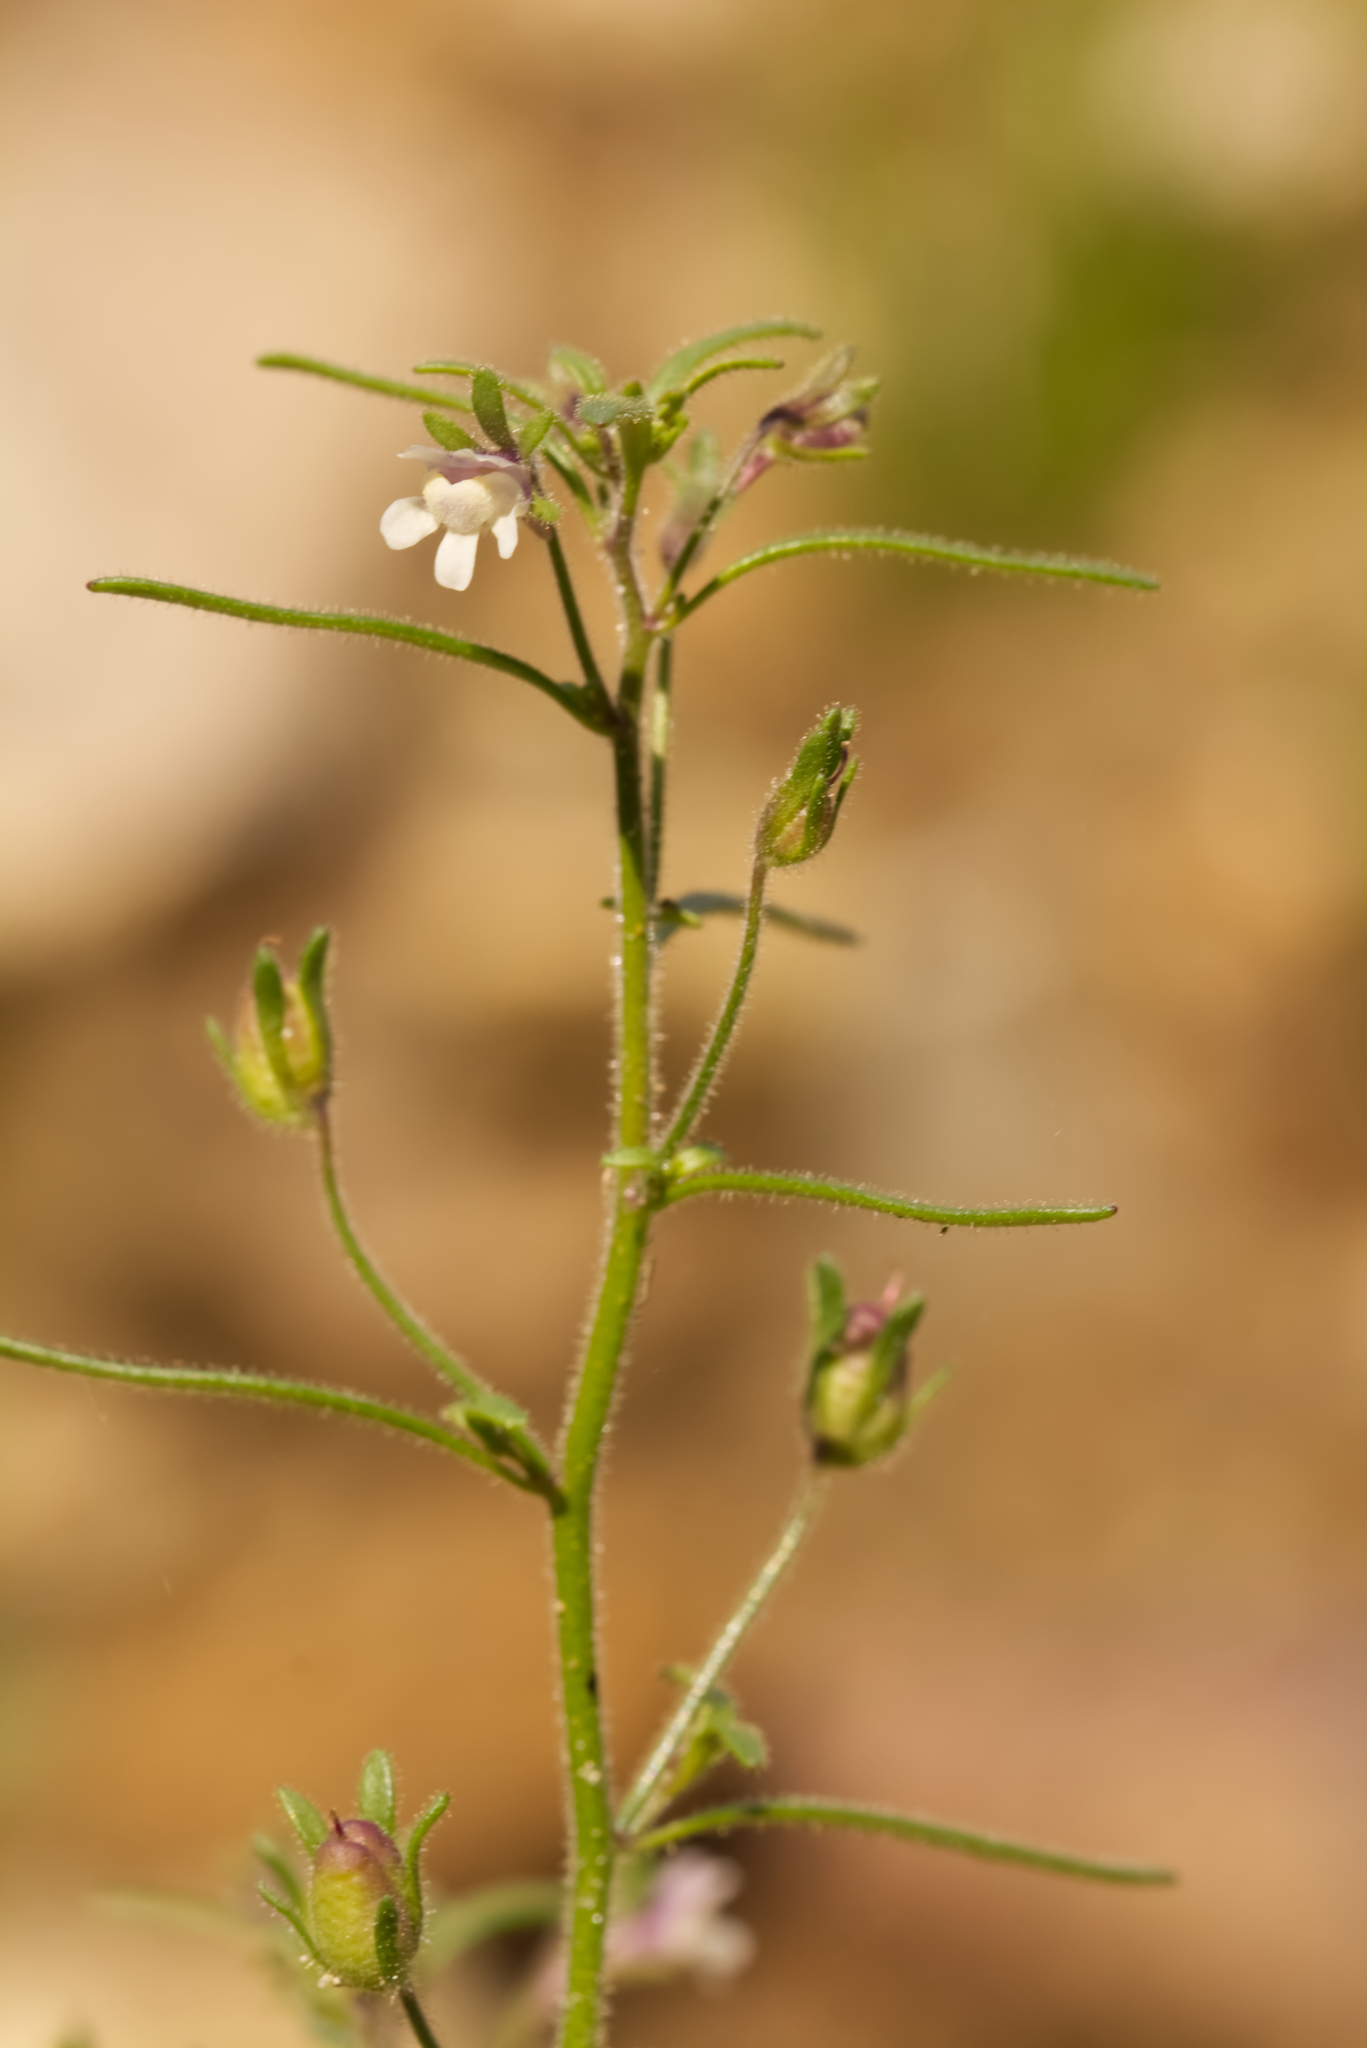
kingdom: Plantae
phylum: Tracheophyta
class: Magnoliopsida
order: Lamiales
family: Plantaginaceae
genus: Chaenorhinum
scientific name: Chaenorhinum minus
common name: Dwarf snapdragon
